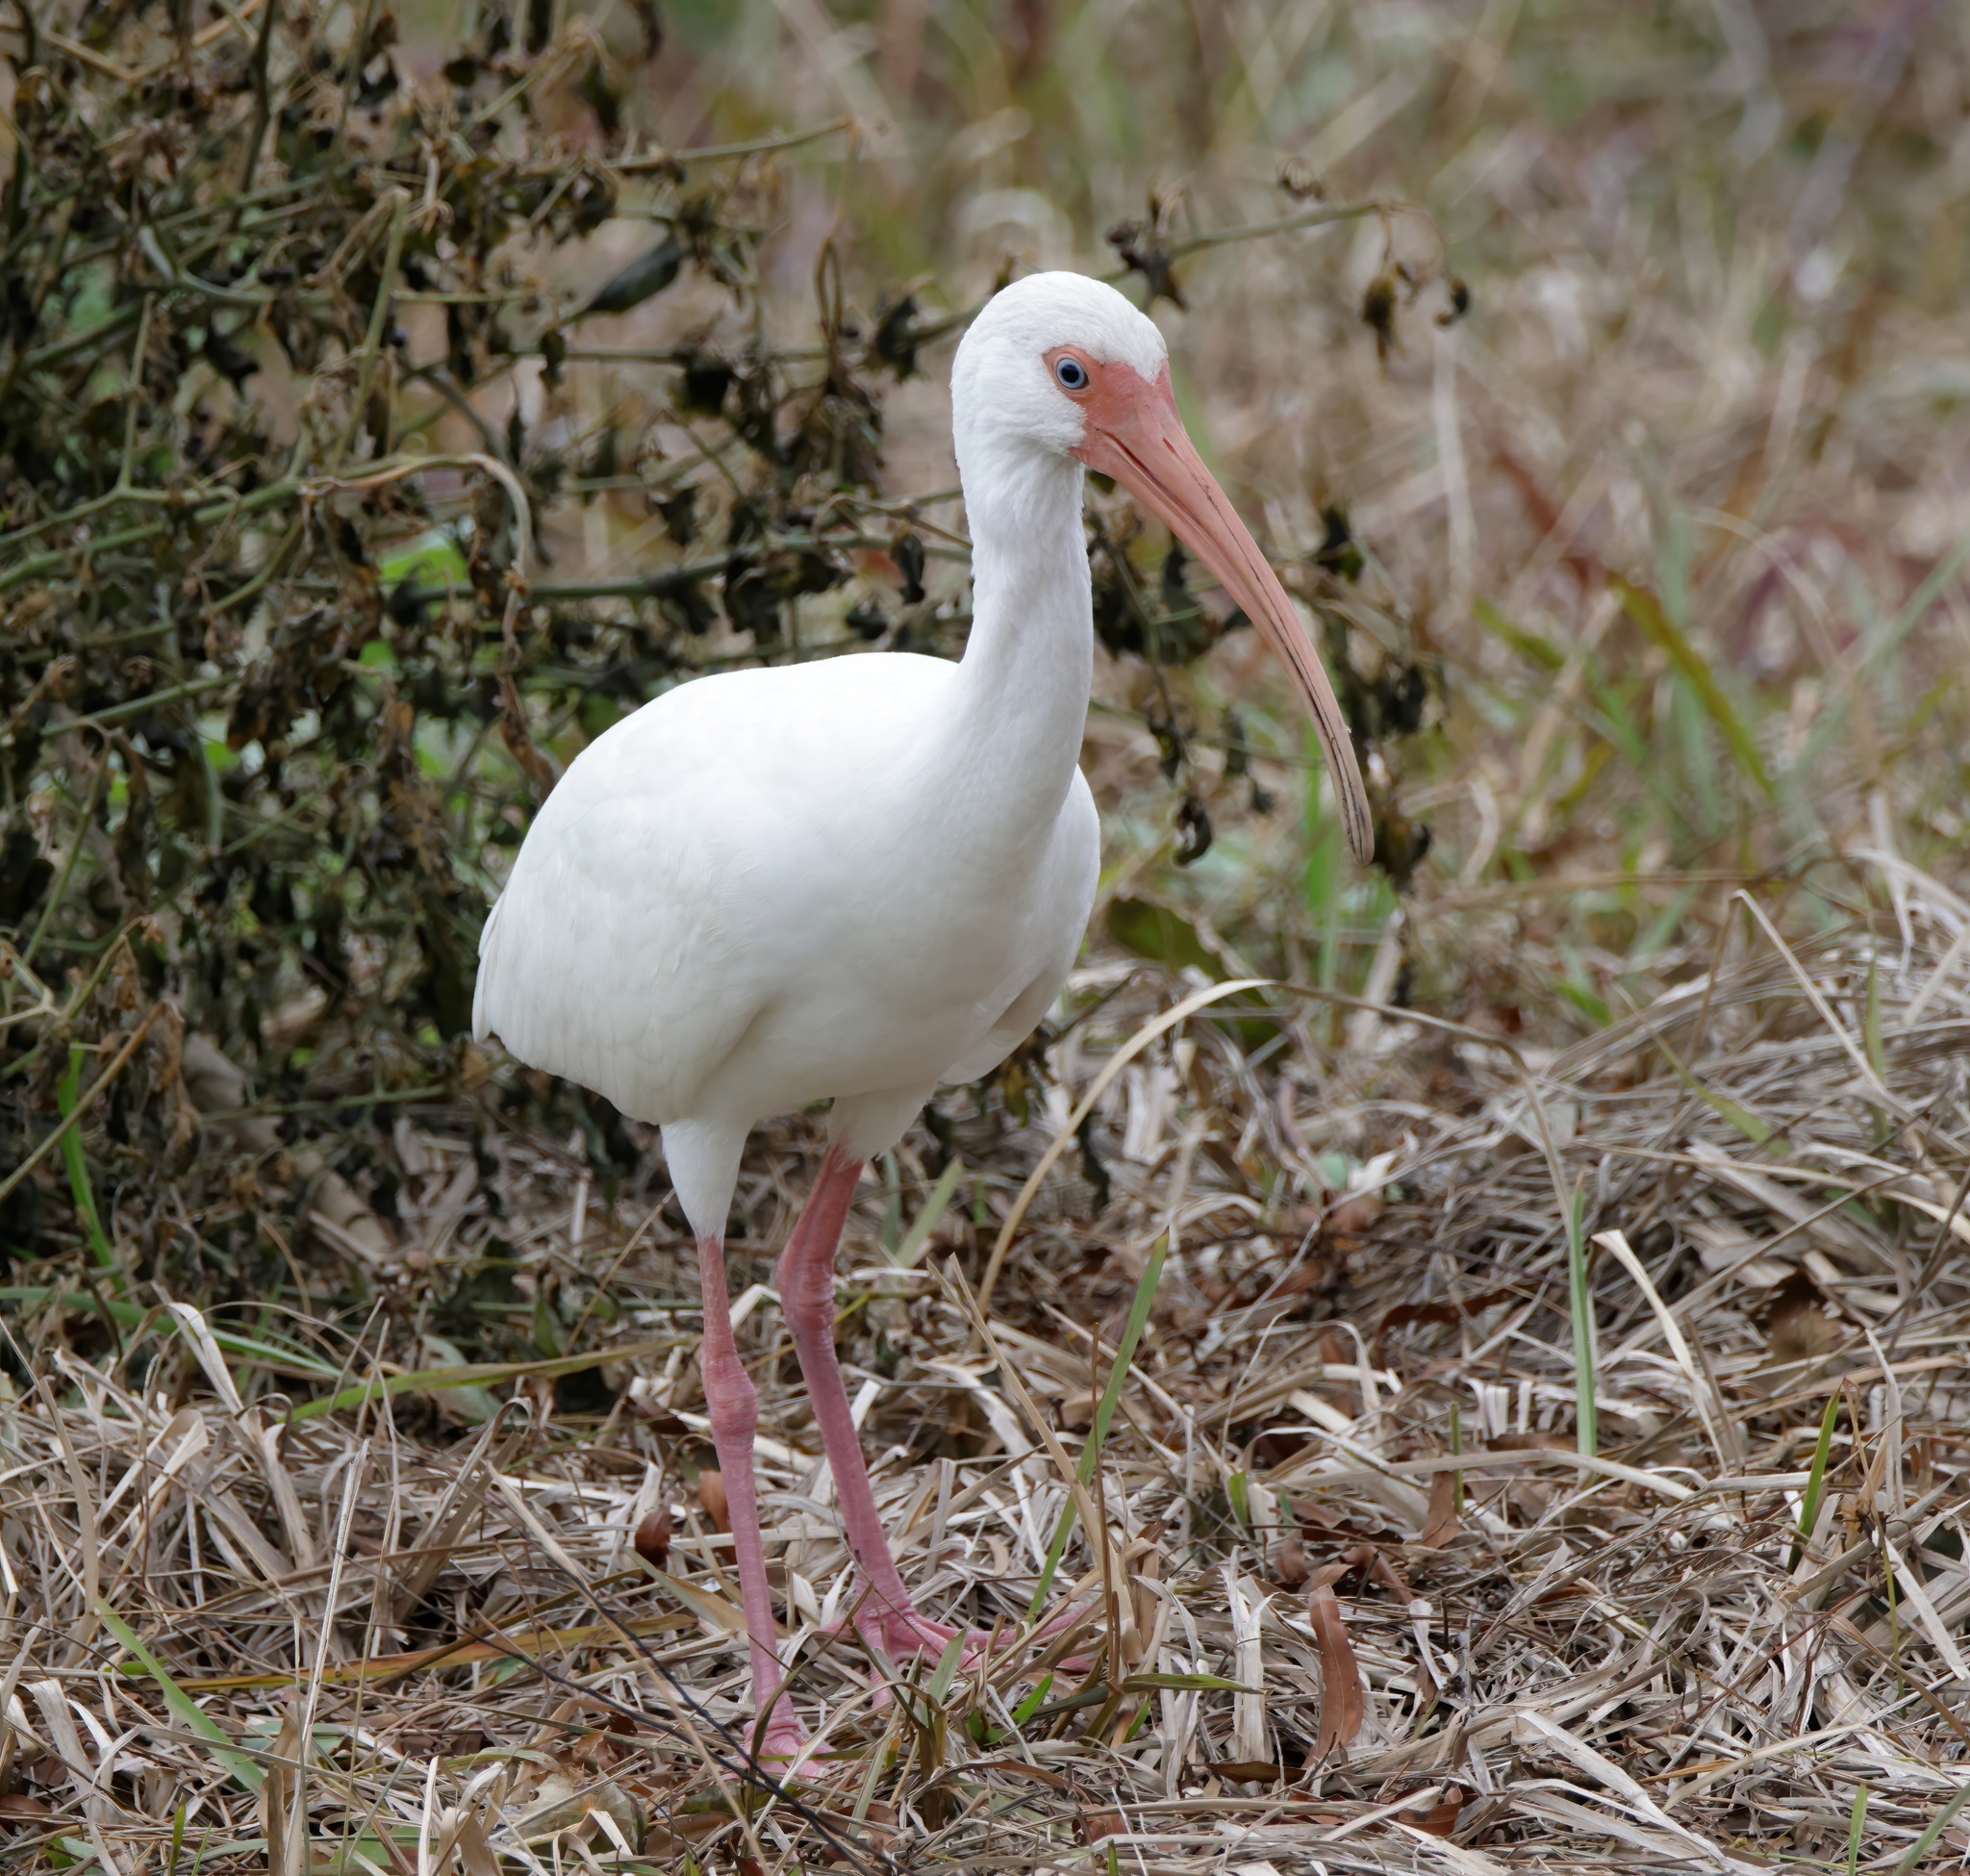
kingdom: Animalia
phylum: Chordata
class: Aves
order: Pelecaniformes
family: Threskiornithidae
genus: Eudocimus
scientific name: Eudocimus albus
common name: White ibis
